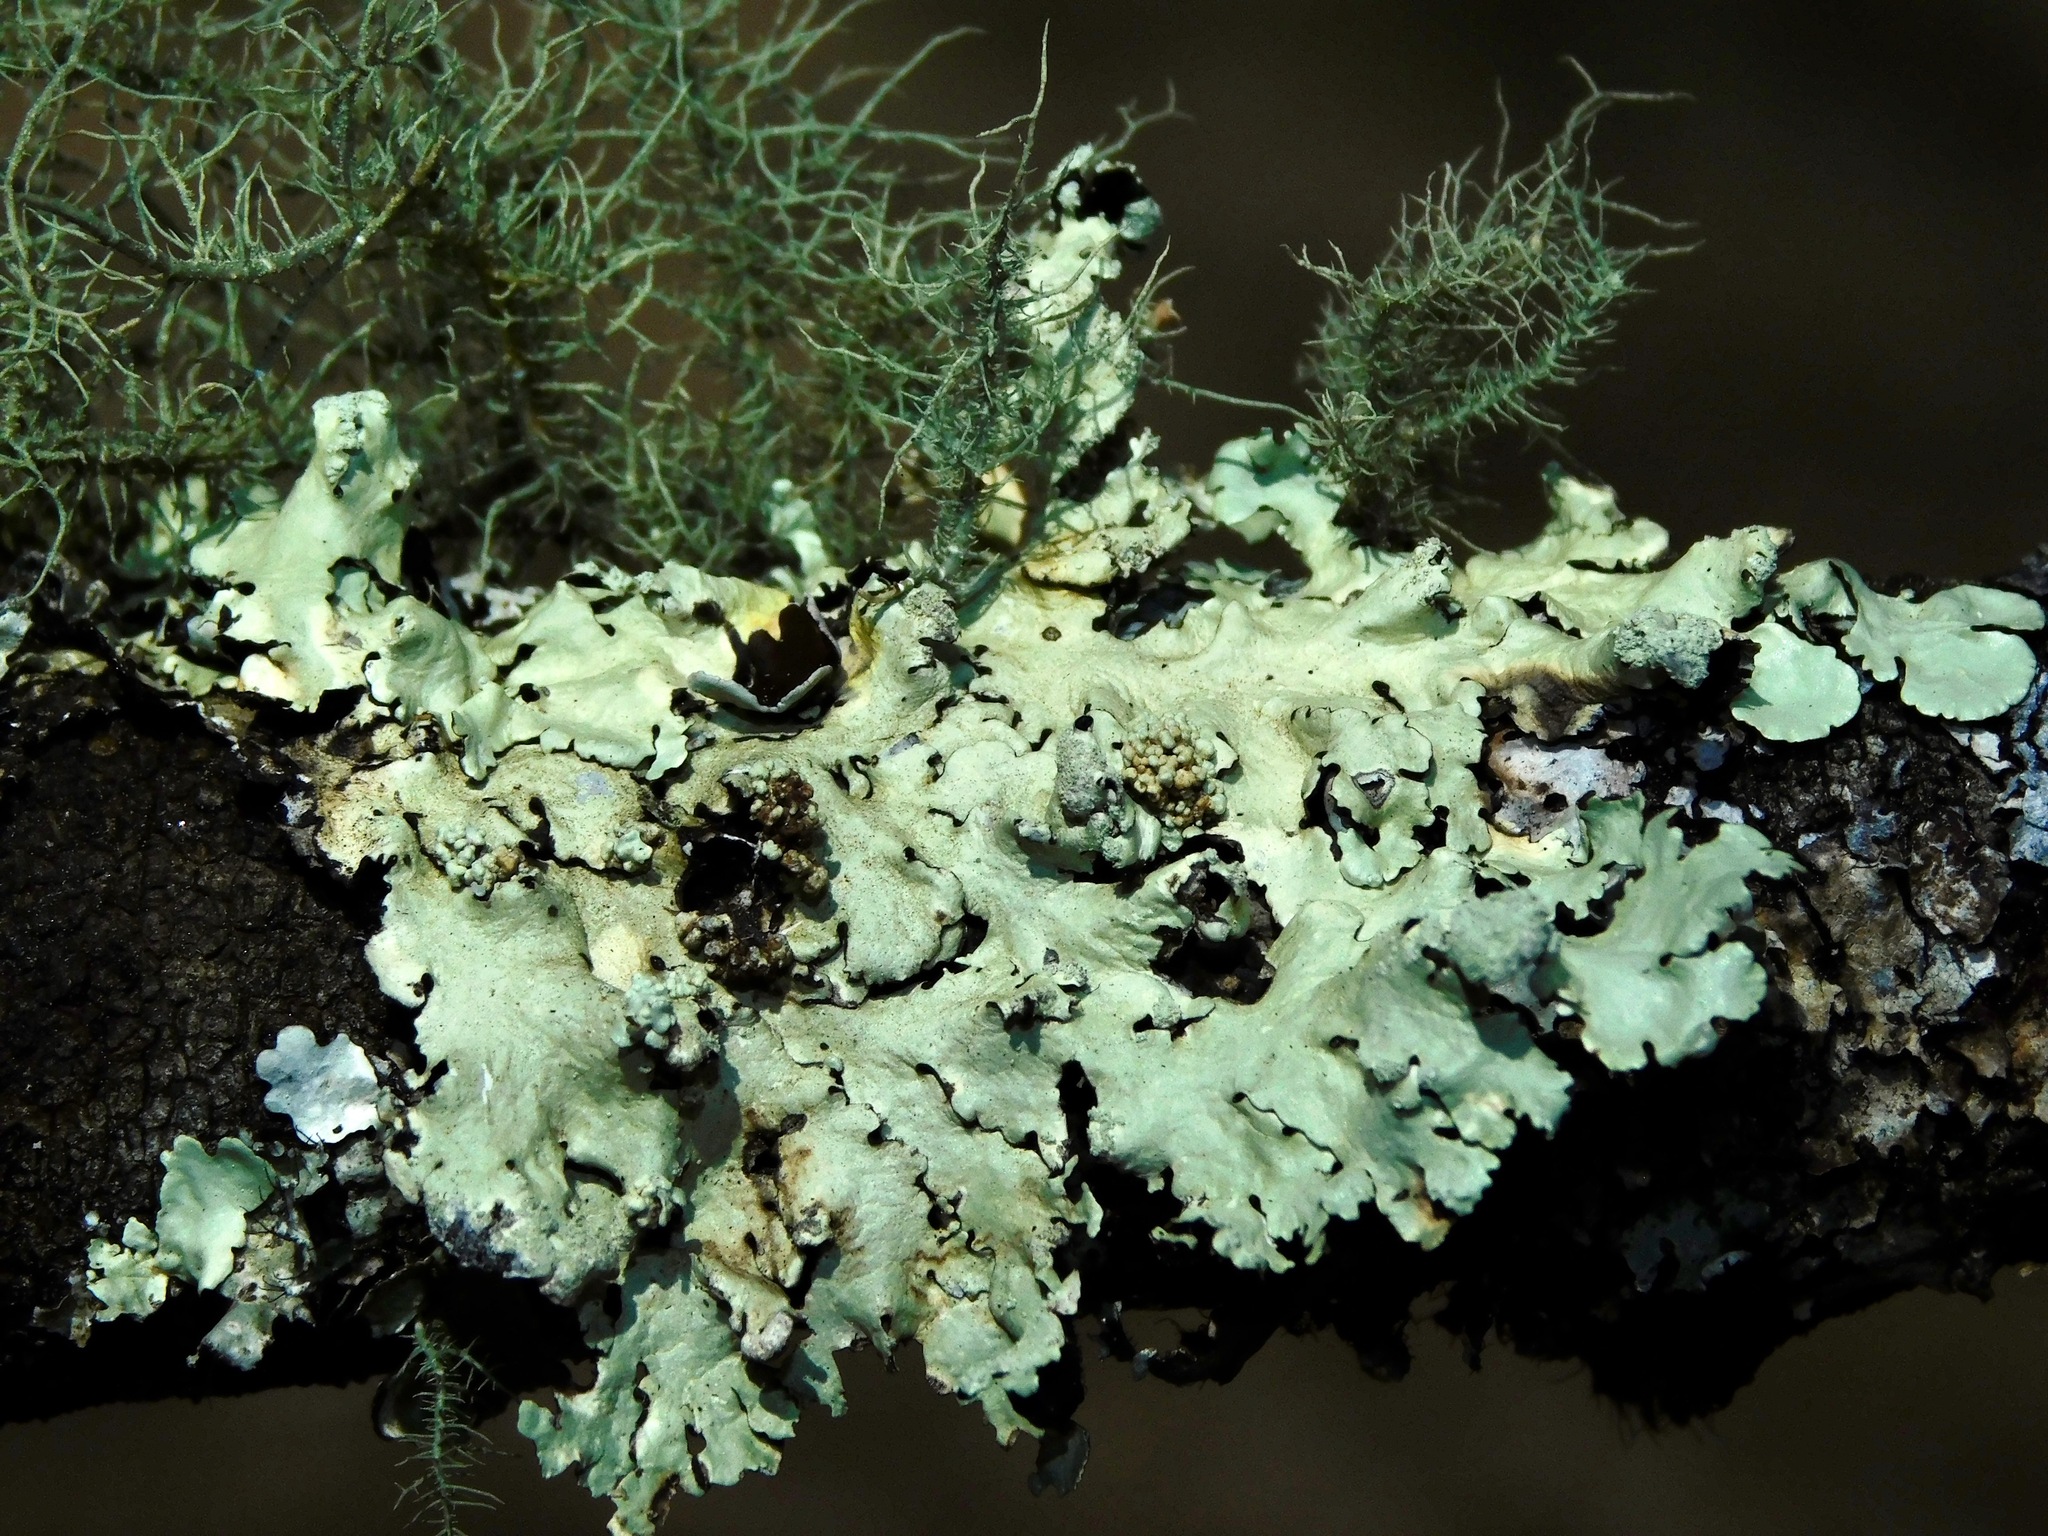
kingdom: Fungi
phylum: Ascomycota
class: Lecanoromycetes
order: Lecanorales
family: Parmeliaceae
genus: Flavoparmelia
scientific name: Flavoparmelia caperata
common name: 40-mile per hour lichen
